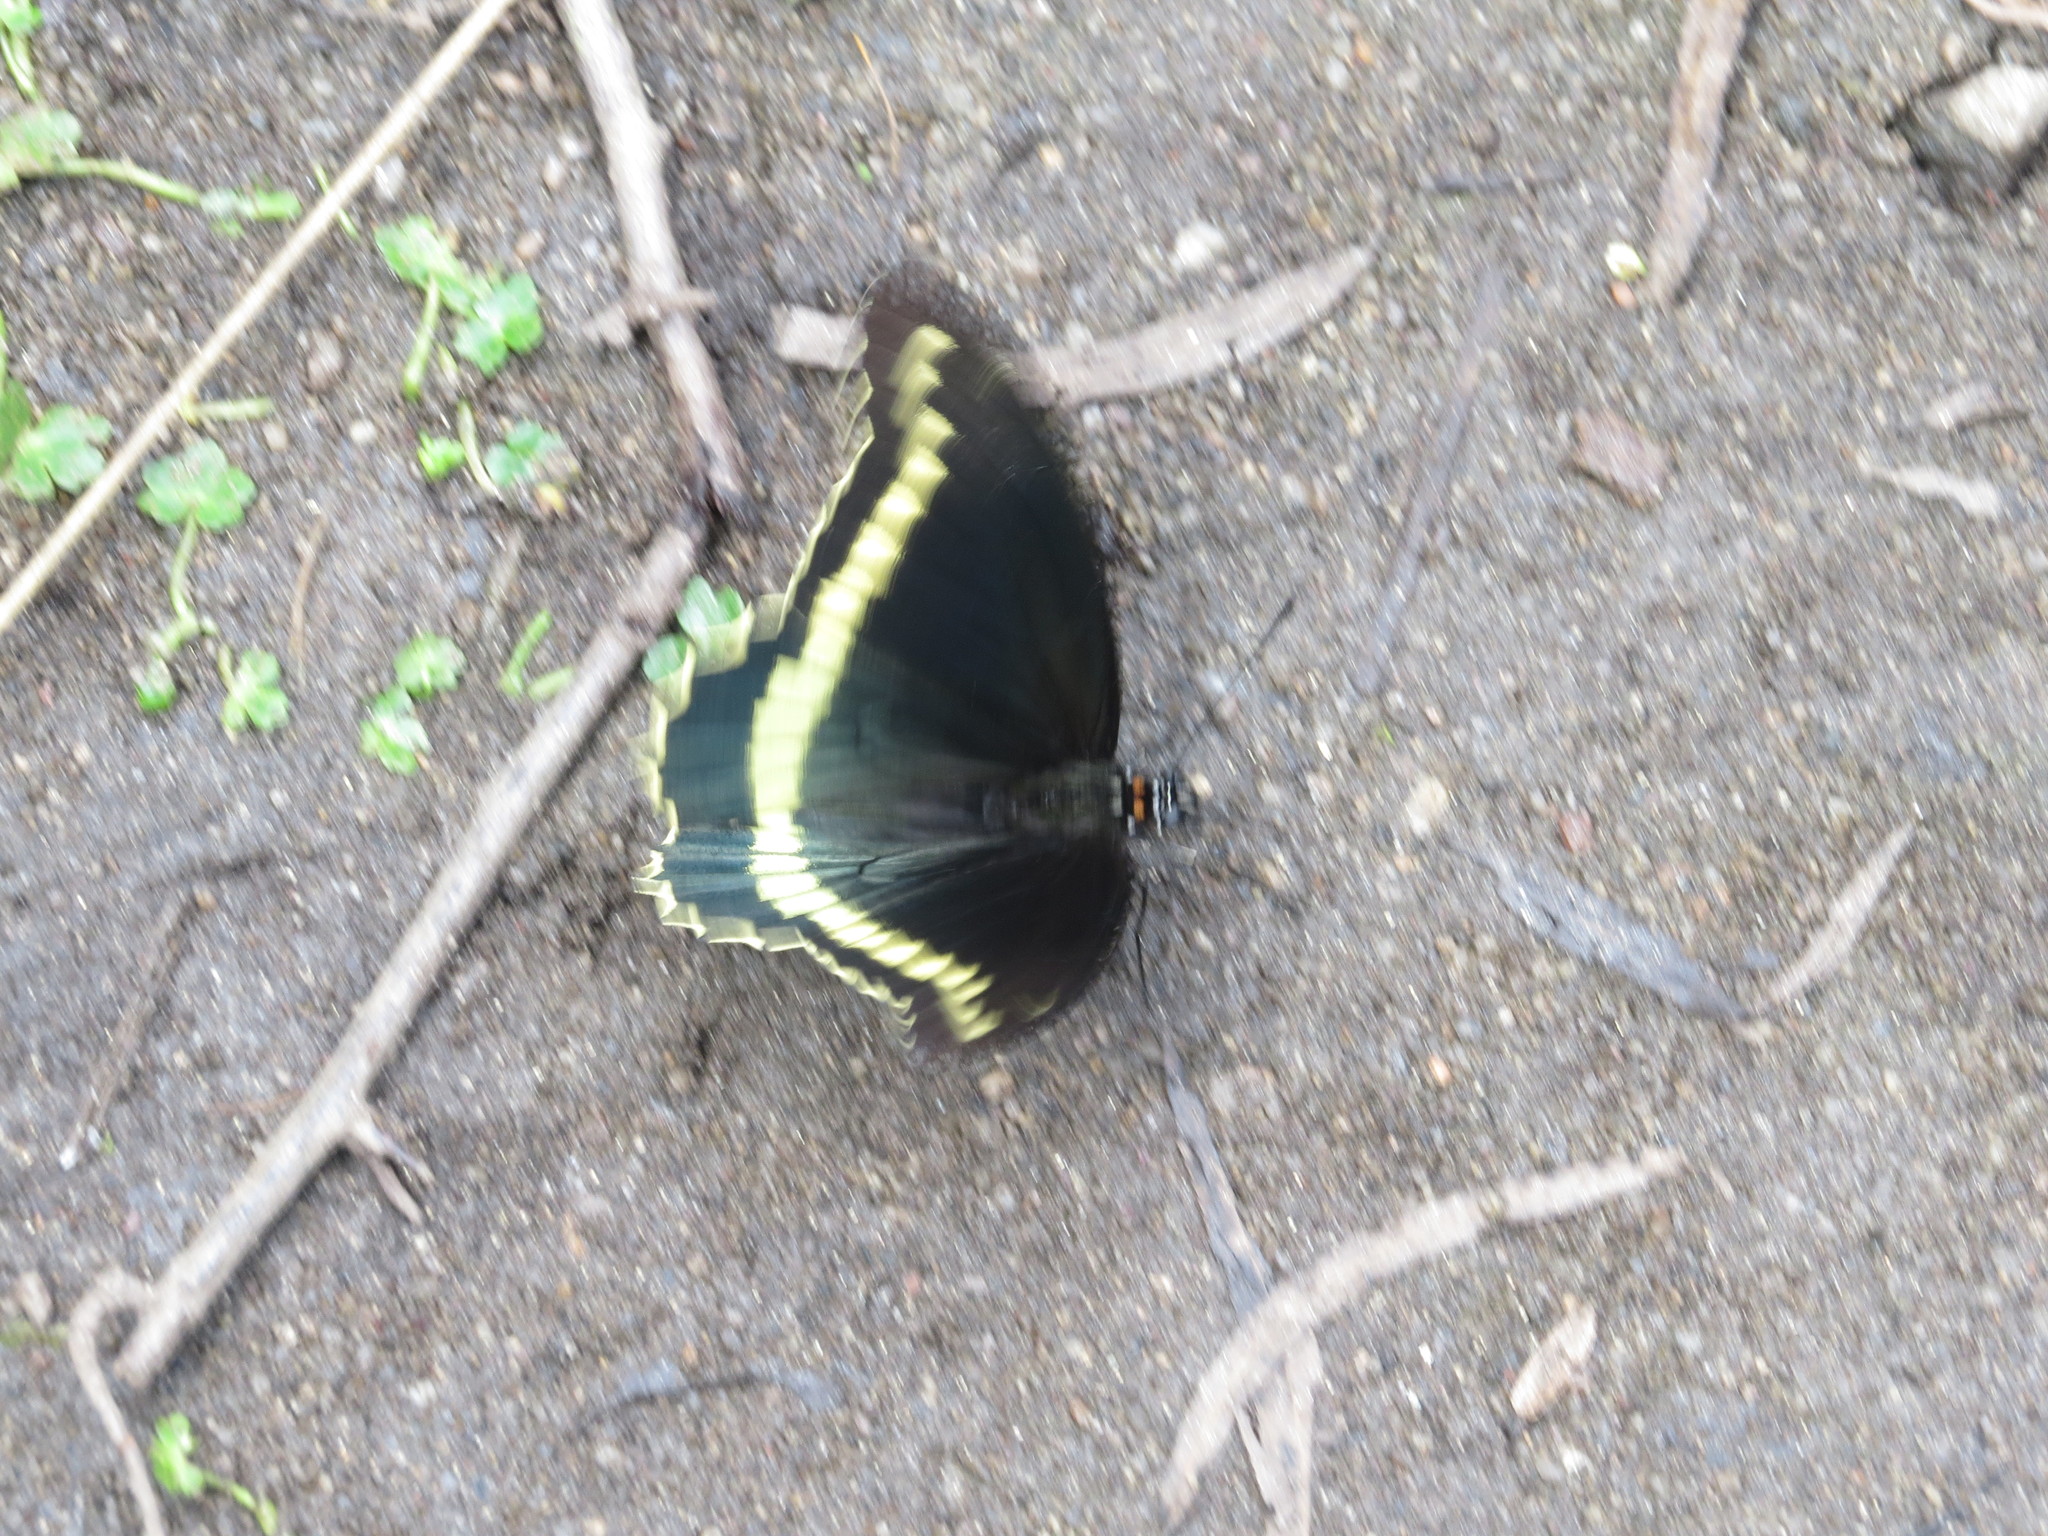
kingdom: Animalia
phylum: Arthropoda
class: Insecta
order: Lepidoptera
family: Papilionidae
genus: Battus
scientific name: Battus polydamas
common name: Polydamas swallowtail
